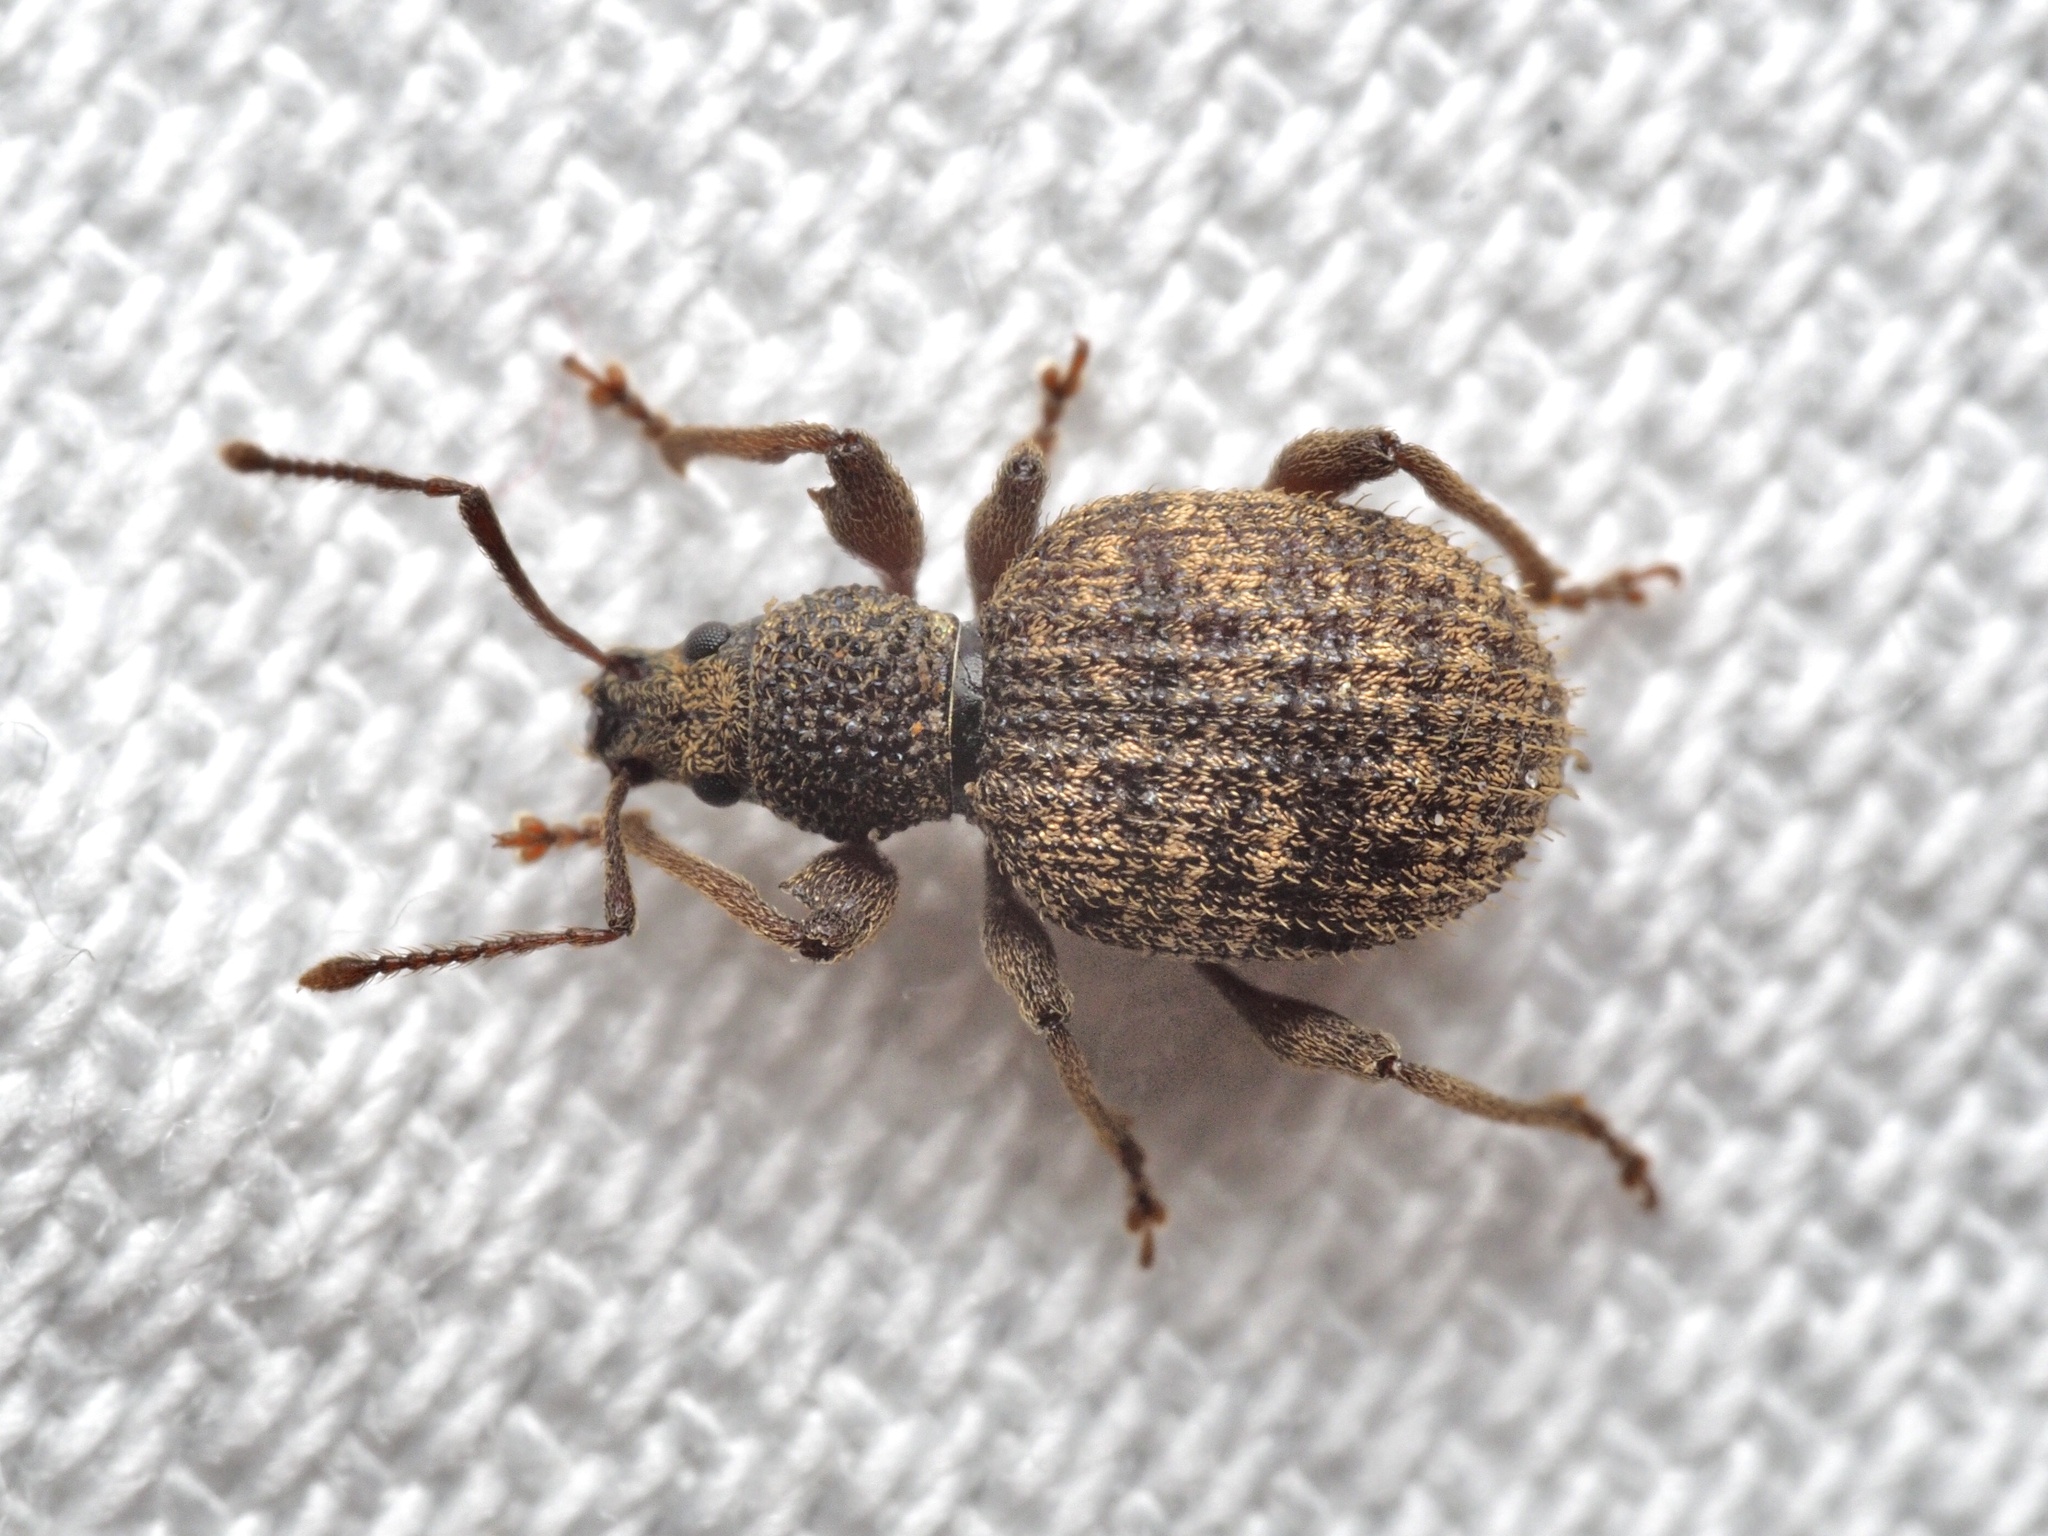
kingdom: Animalia
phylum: Arthropoda
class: Insecta
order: Coleoptera
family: Curculionidae
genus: Otiorhynchus
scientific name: Otiorhynchus crataegi
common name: Privet weevil
